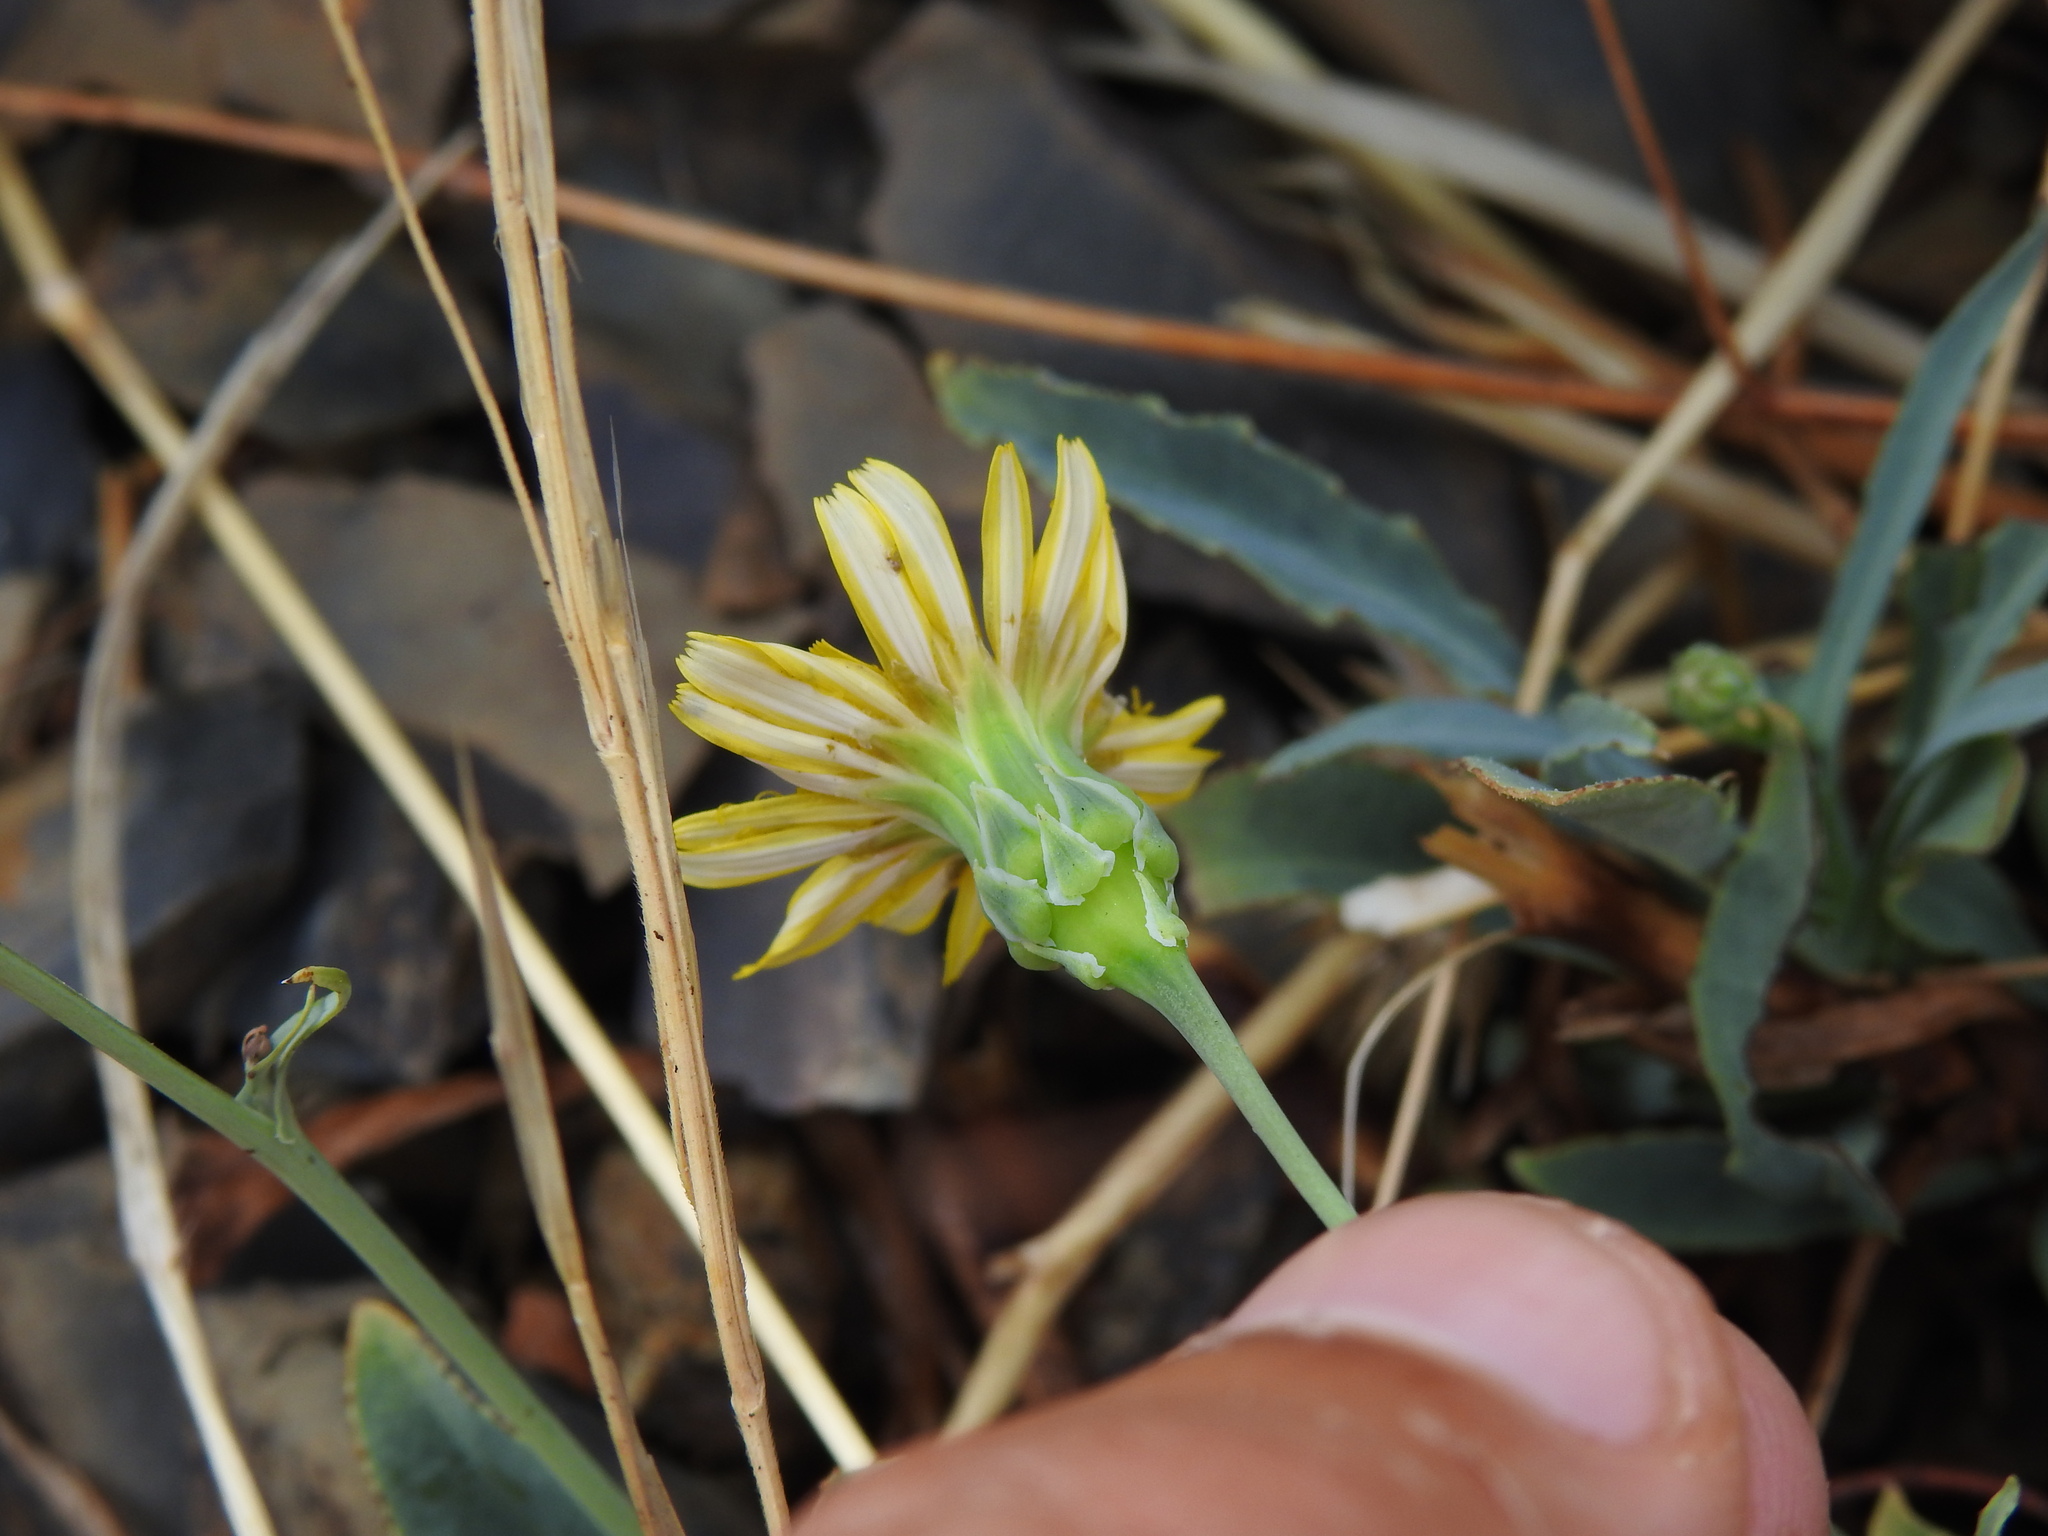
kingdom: Plantae
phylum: Tracheophyta
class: Magnoliopsida
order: Asterales
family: Asteraceae
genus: Reichardia
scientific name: Reichardia picroides
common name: Common brighteyes
